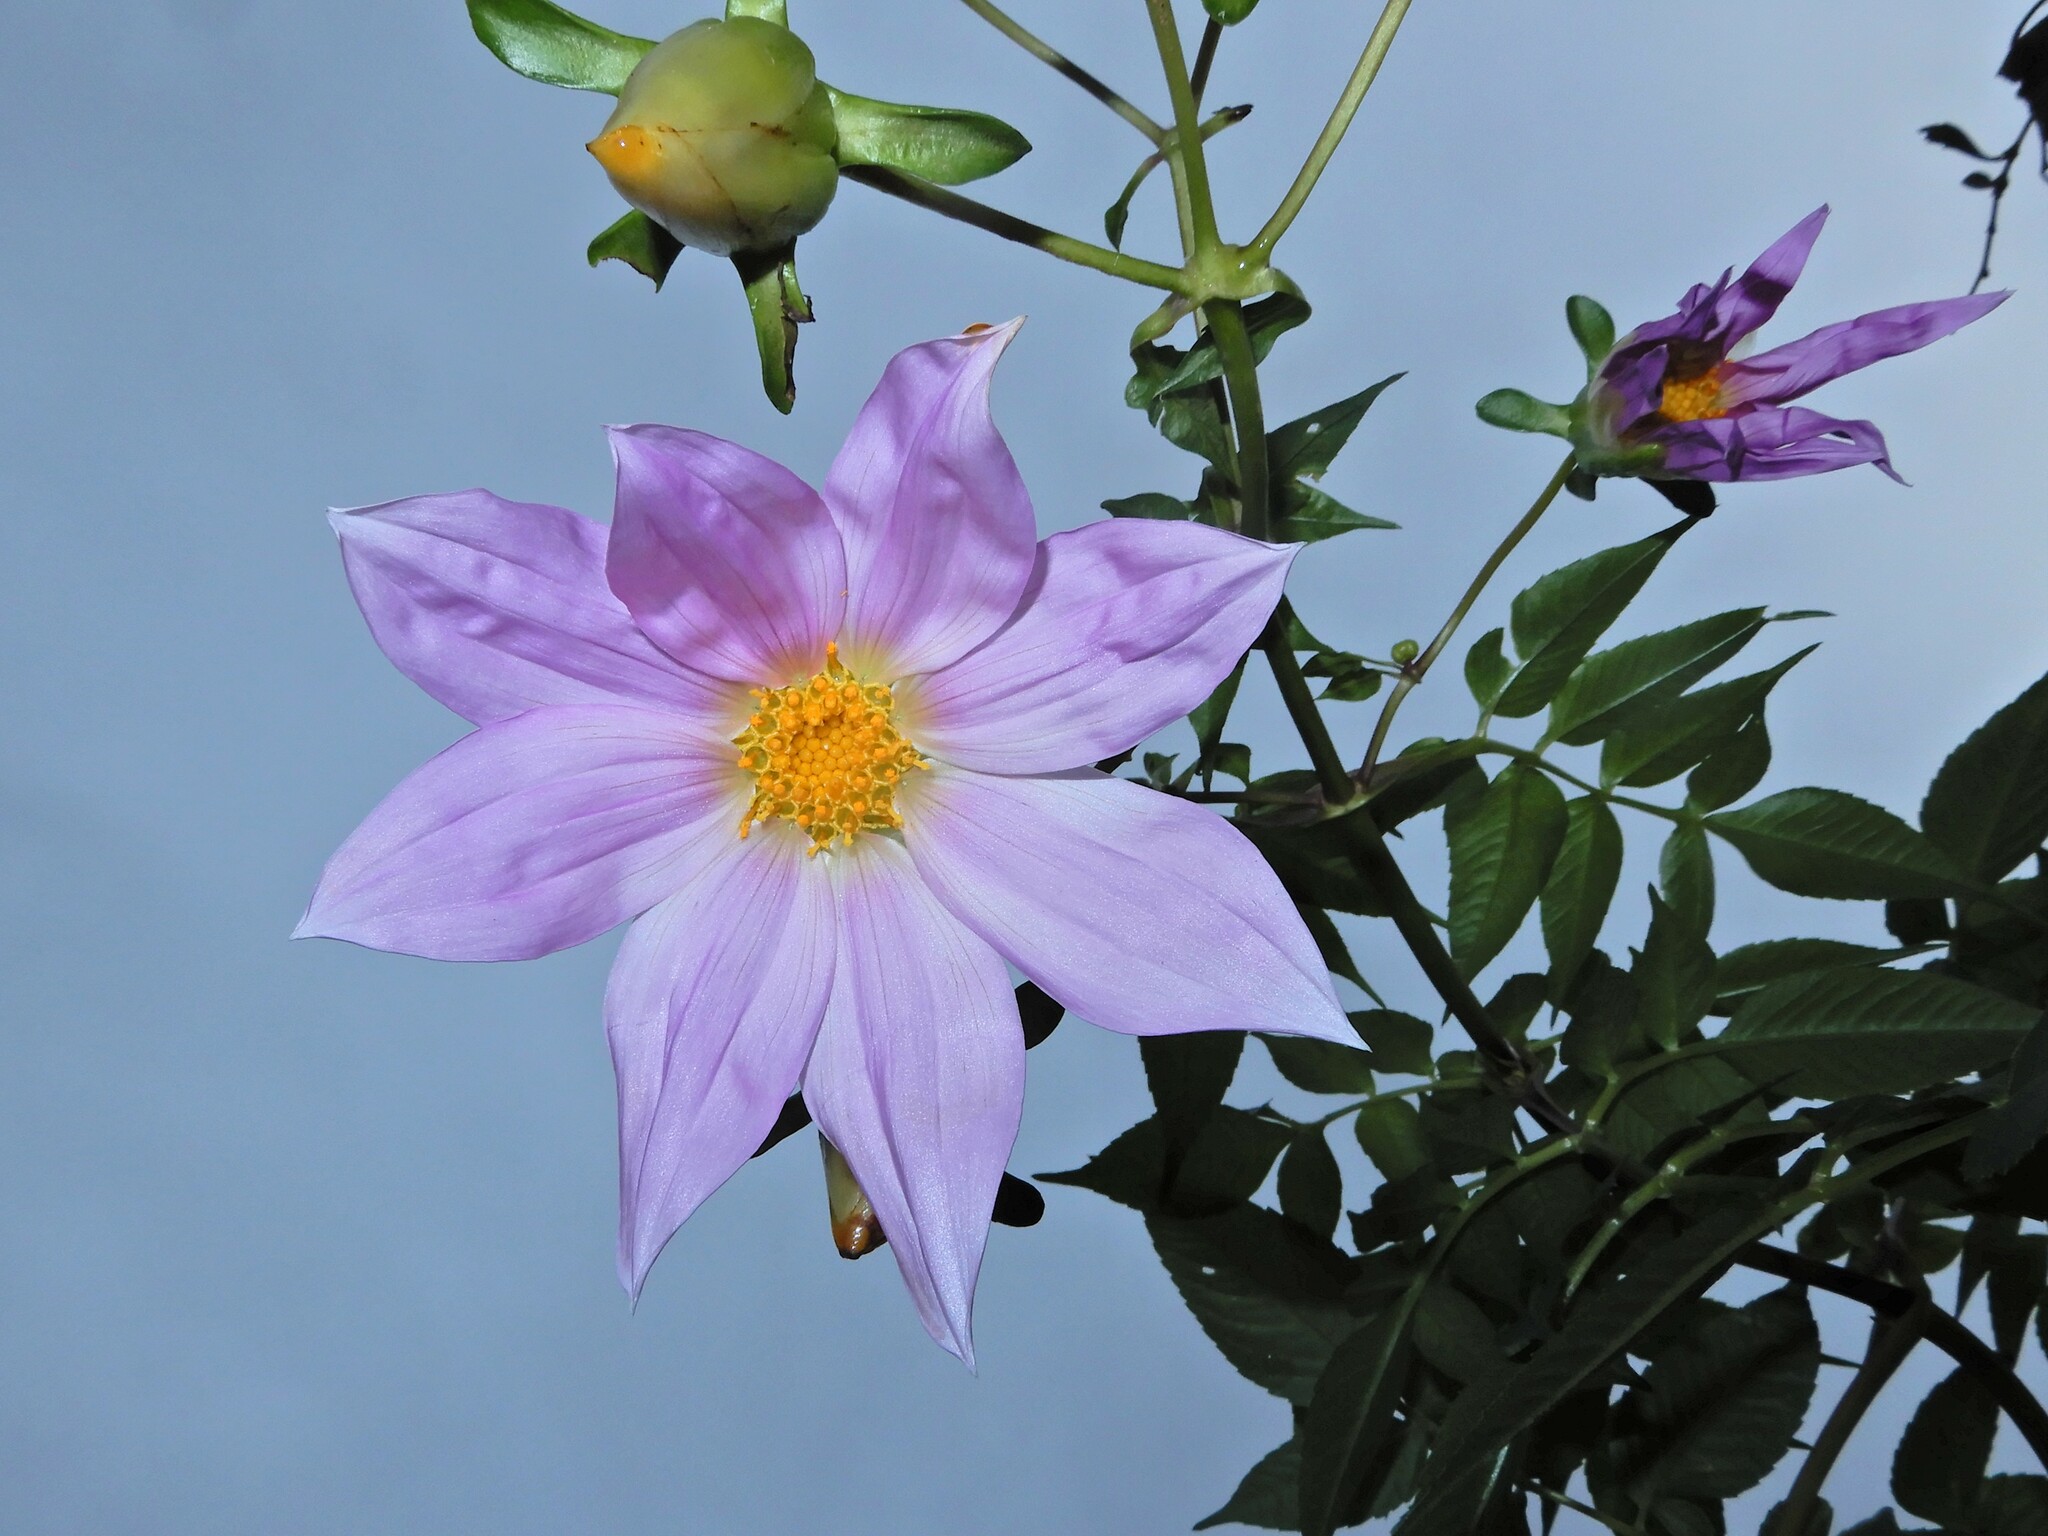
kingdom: Plantae
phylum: Tracheophyta
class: Magnoliopsida
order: Asterales
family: Asteraceae
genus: Dahlia
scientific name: Dahlia imperialis
